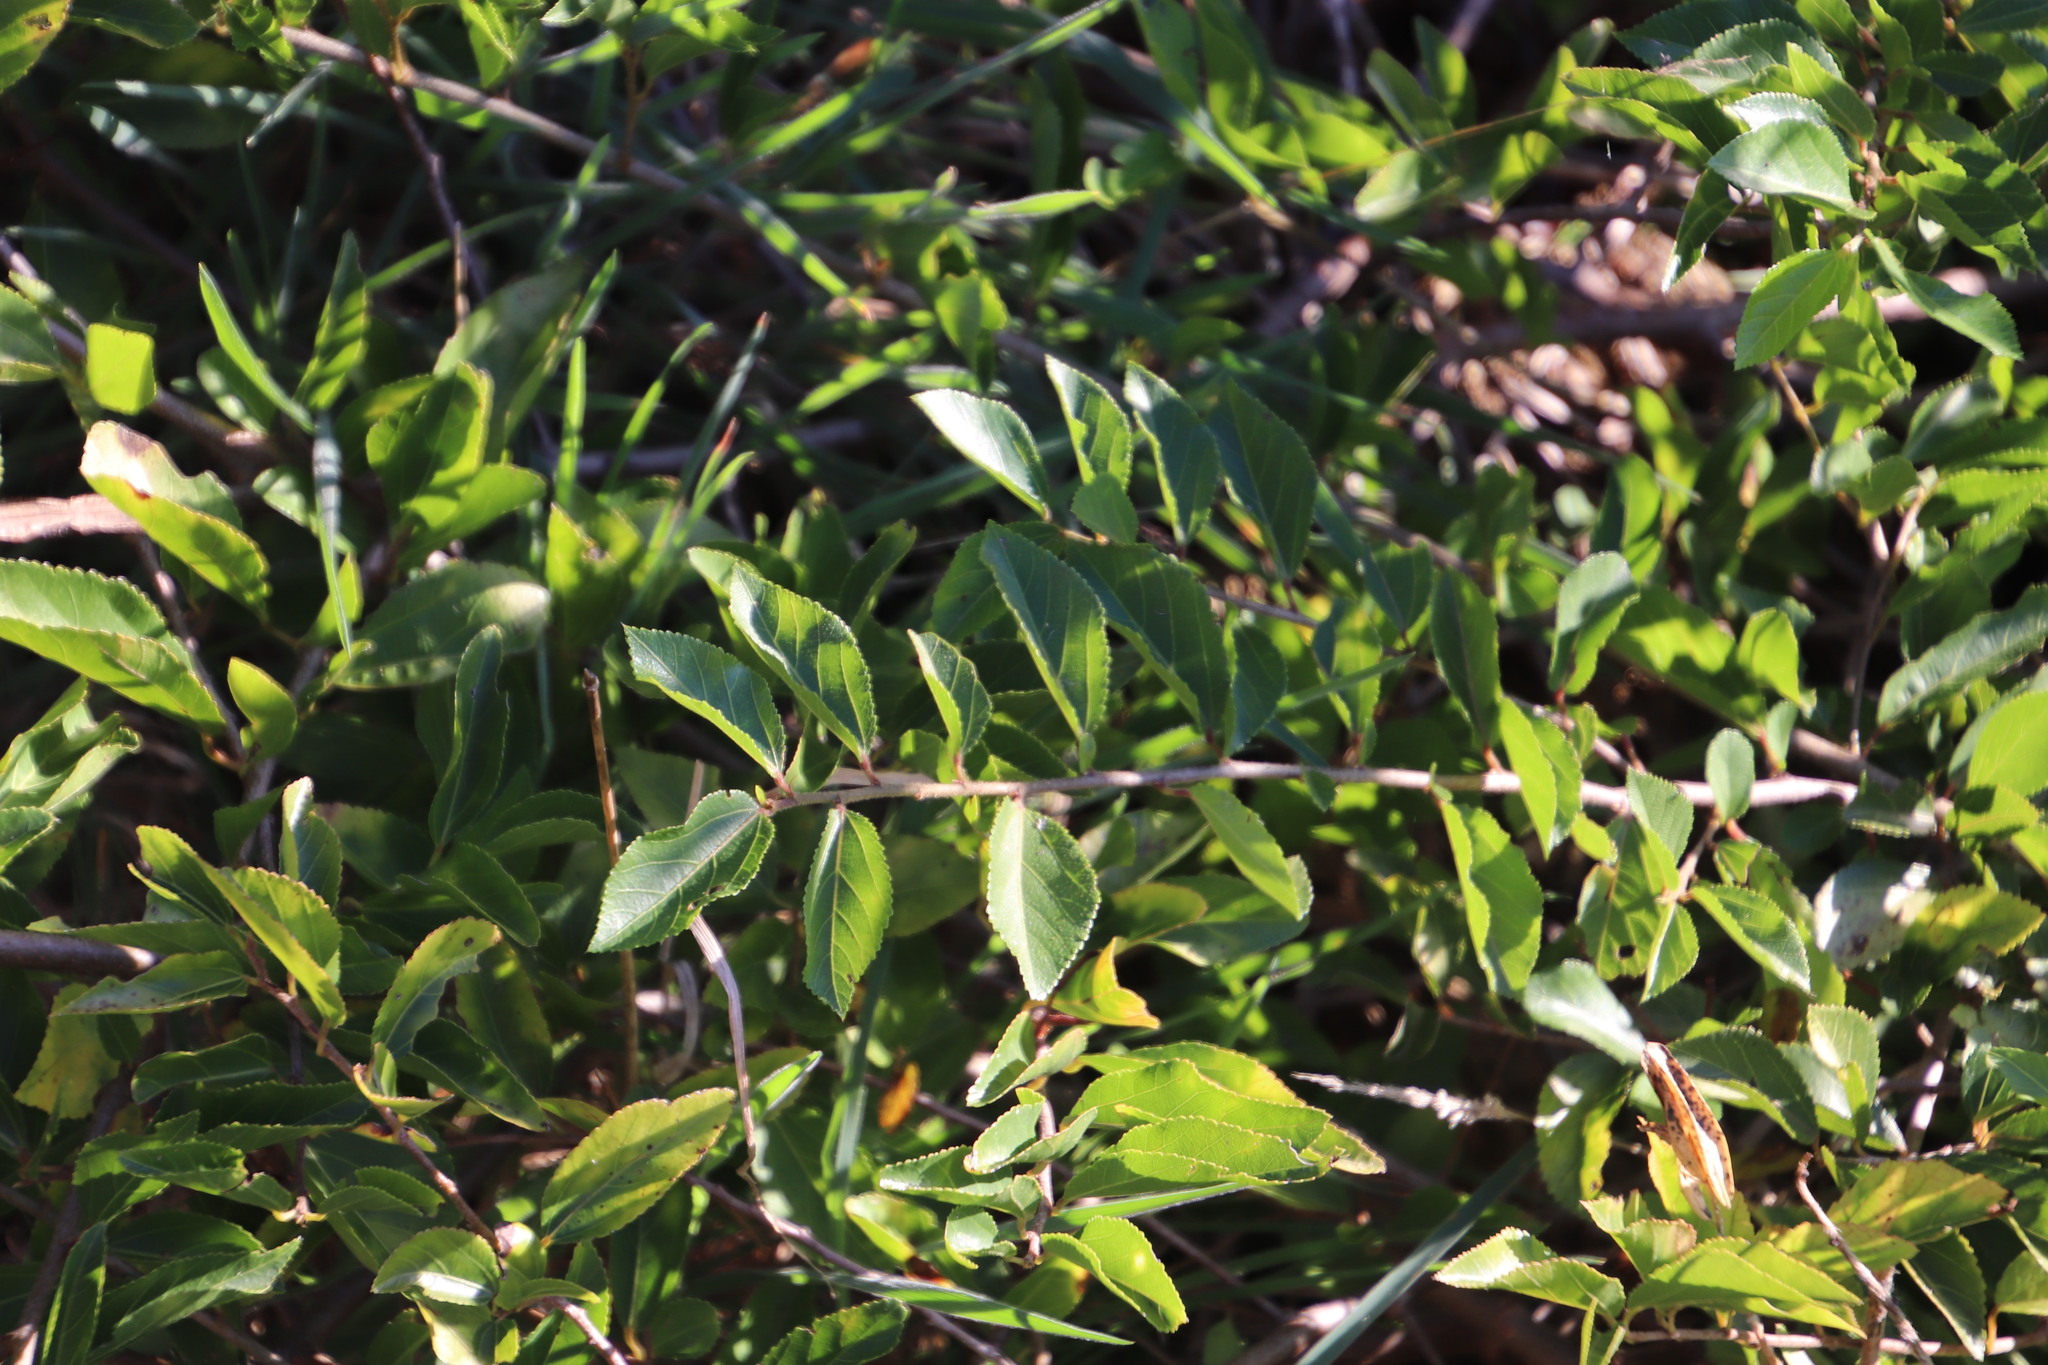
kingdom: Plantae
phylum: Tracheophyta
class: Magnoliopsida
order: Malvales
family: Malvaceae
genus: Grewia
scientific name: Grewia occidentalis
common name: Crossberry
